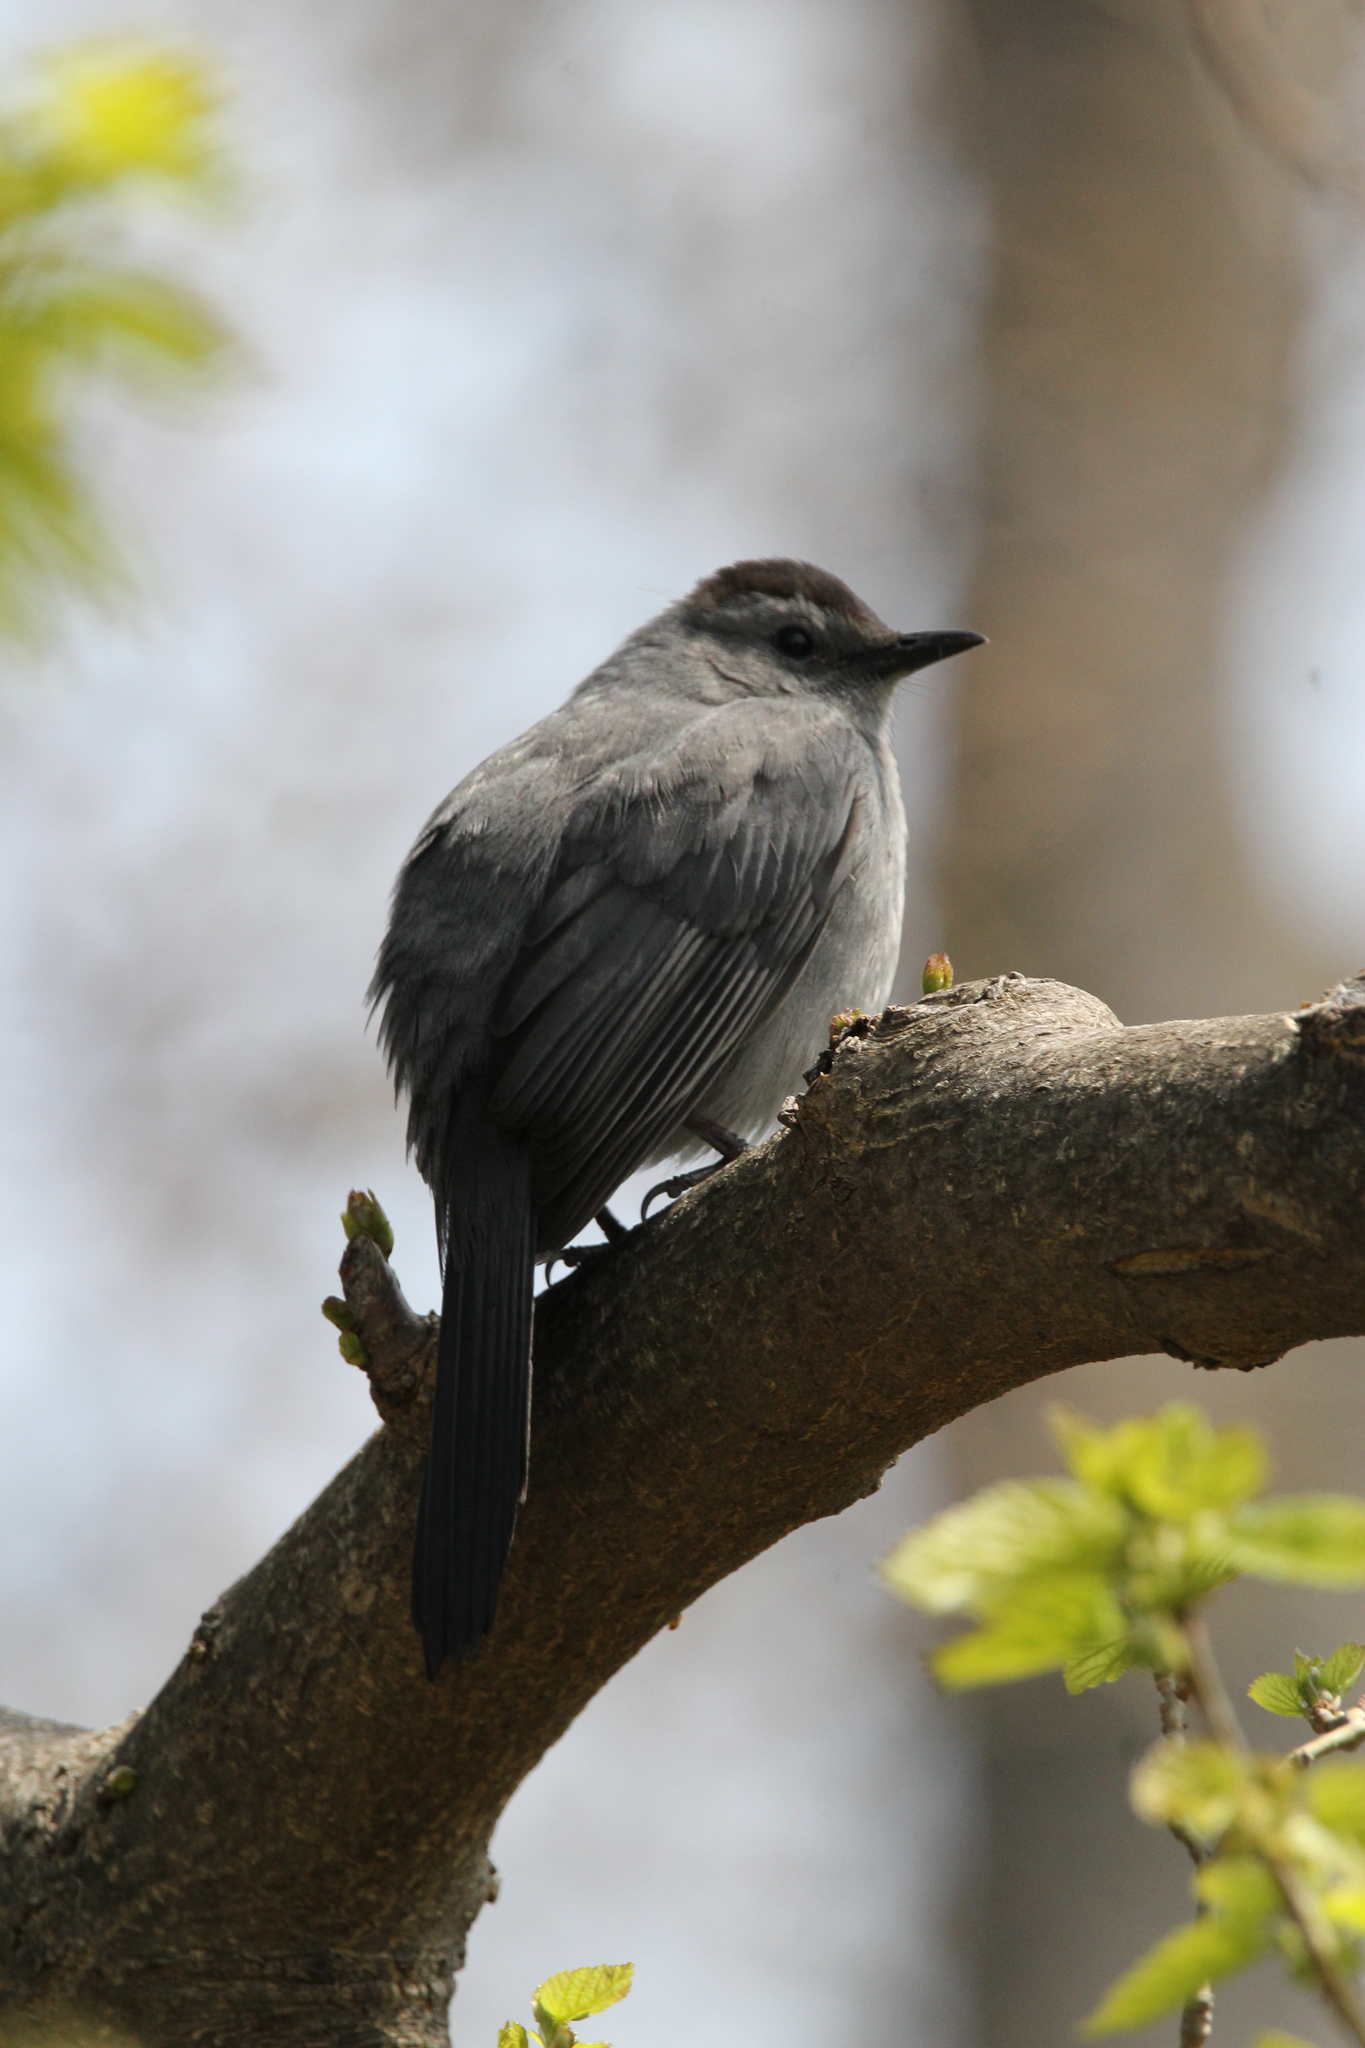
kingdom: Animalia
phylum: Chordata
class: Aves
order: Passeriformes
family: Mimidae
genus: Dumetella
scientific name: Dumetella carolinensis
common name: Gray catbird
